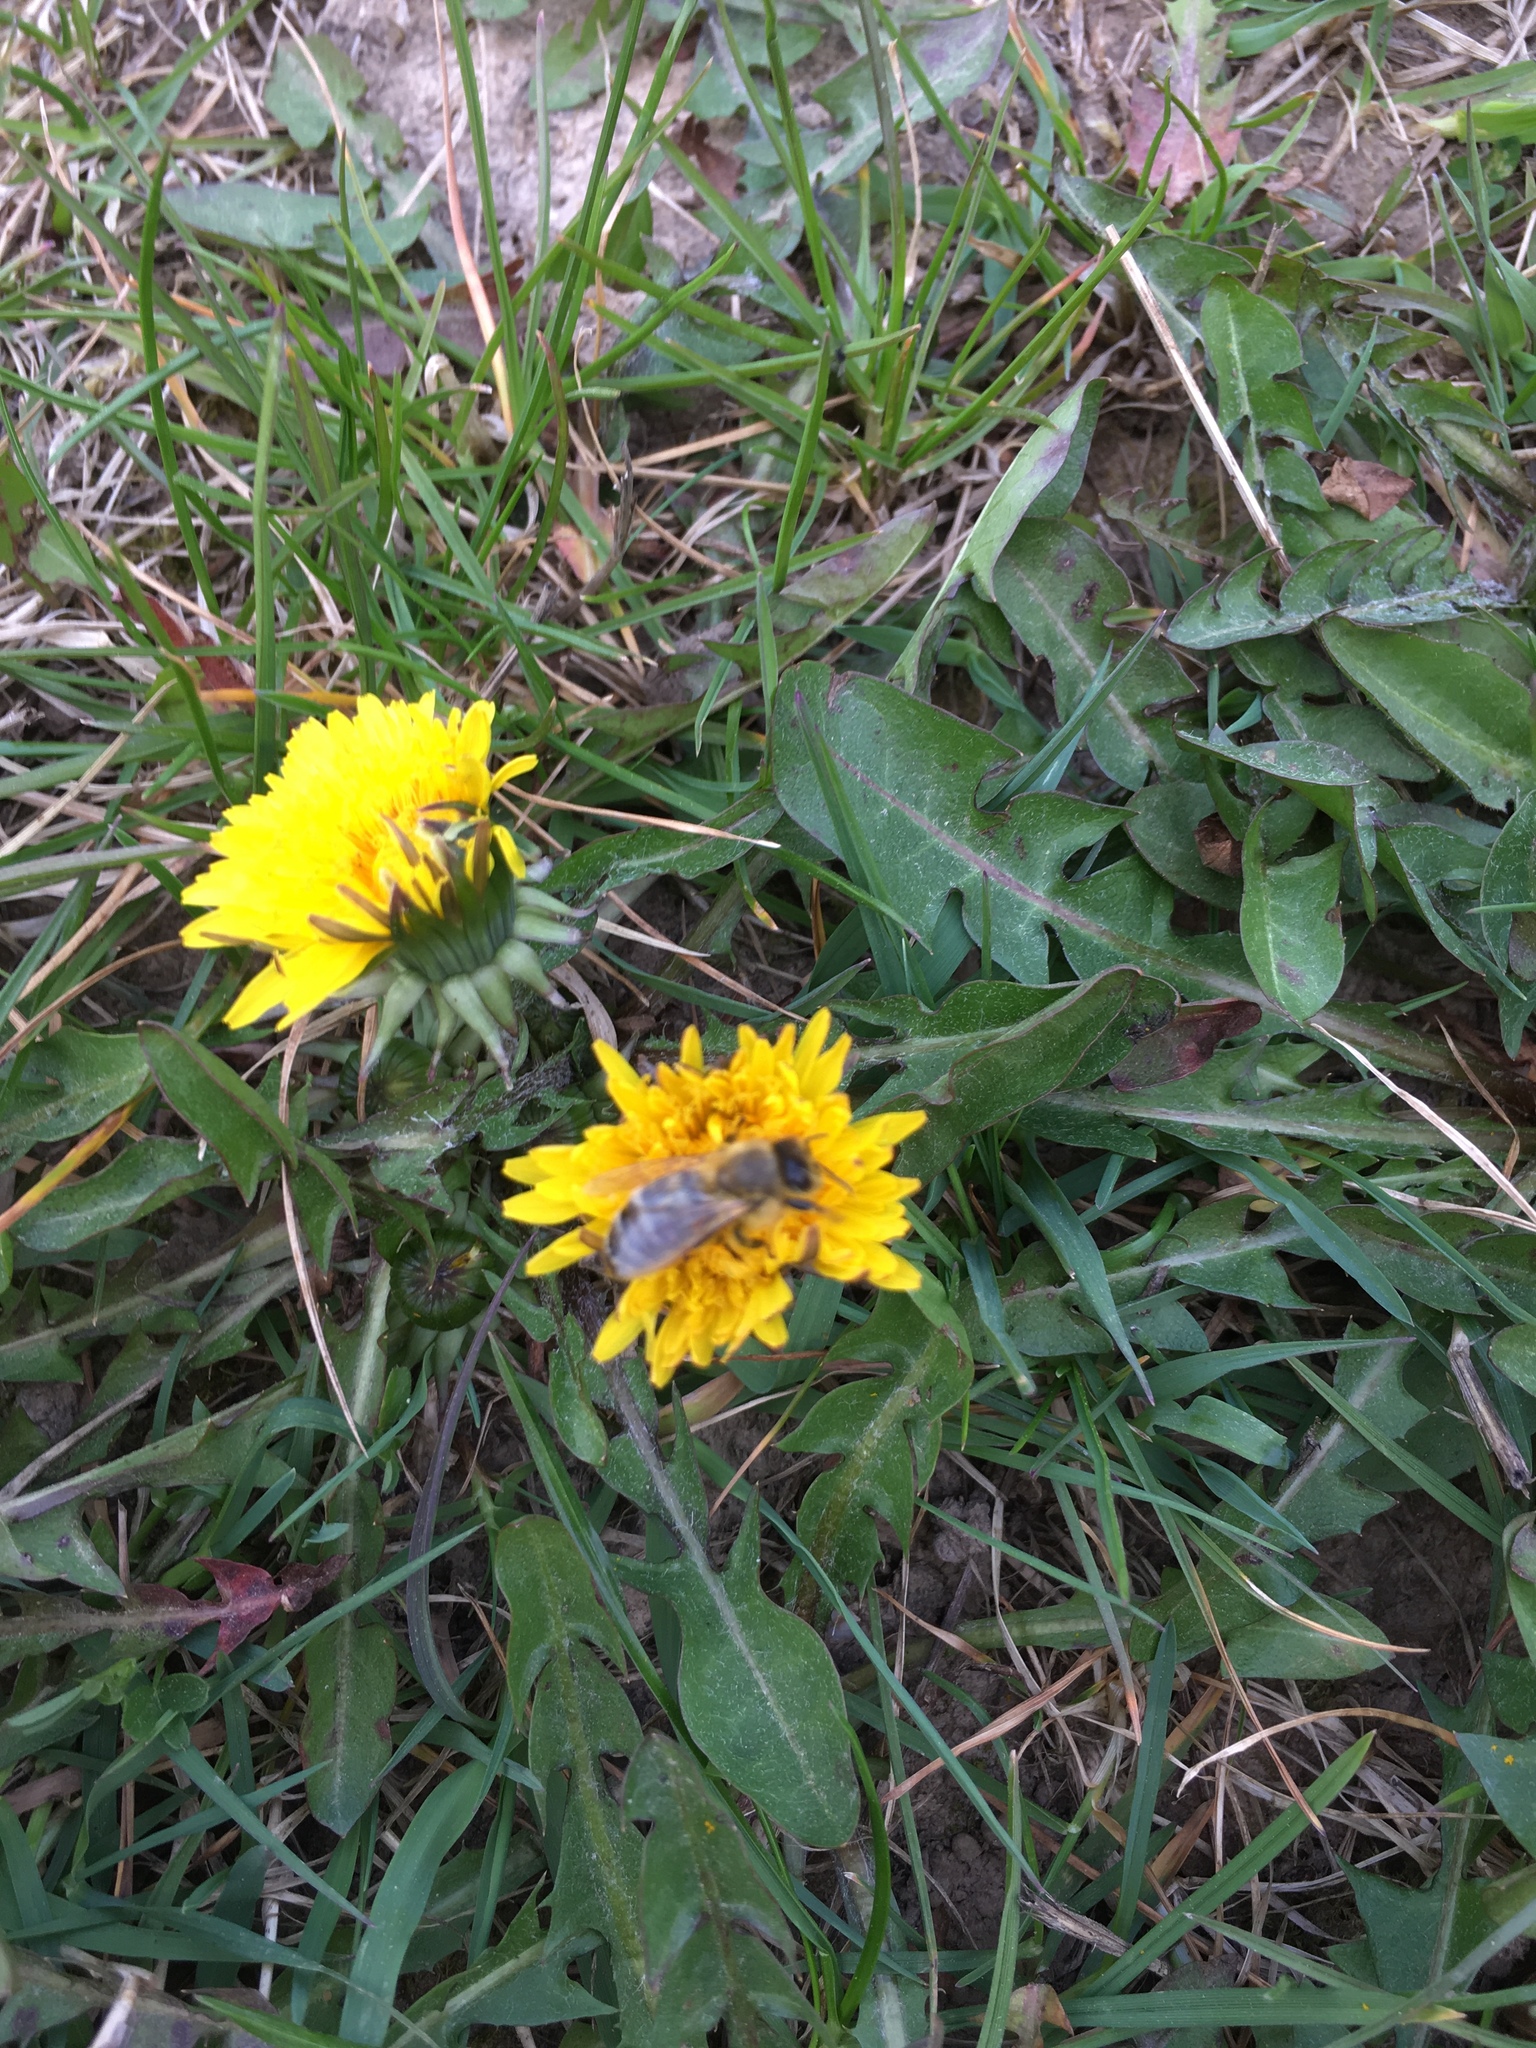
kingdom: Animalia
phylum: Arthropoda
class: Insecta
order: Hymenoptera
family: Apidae
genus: Apis
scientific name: Apis mellifera
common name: Honey bee
